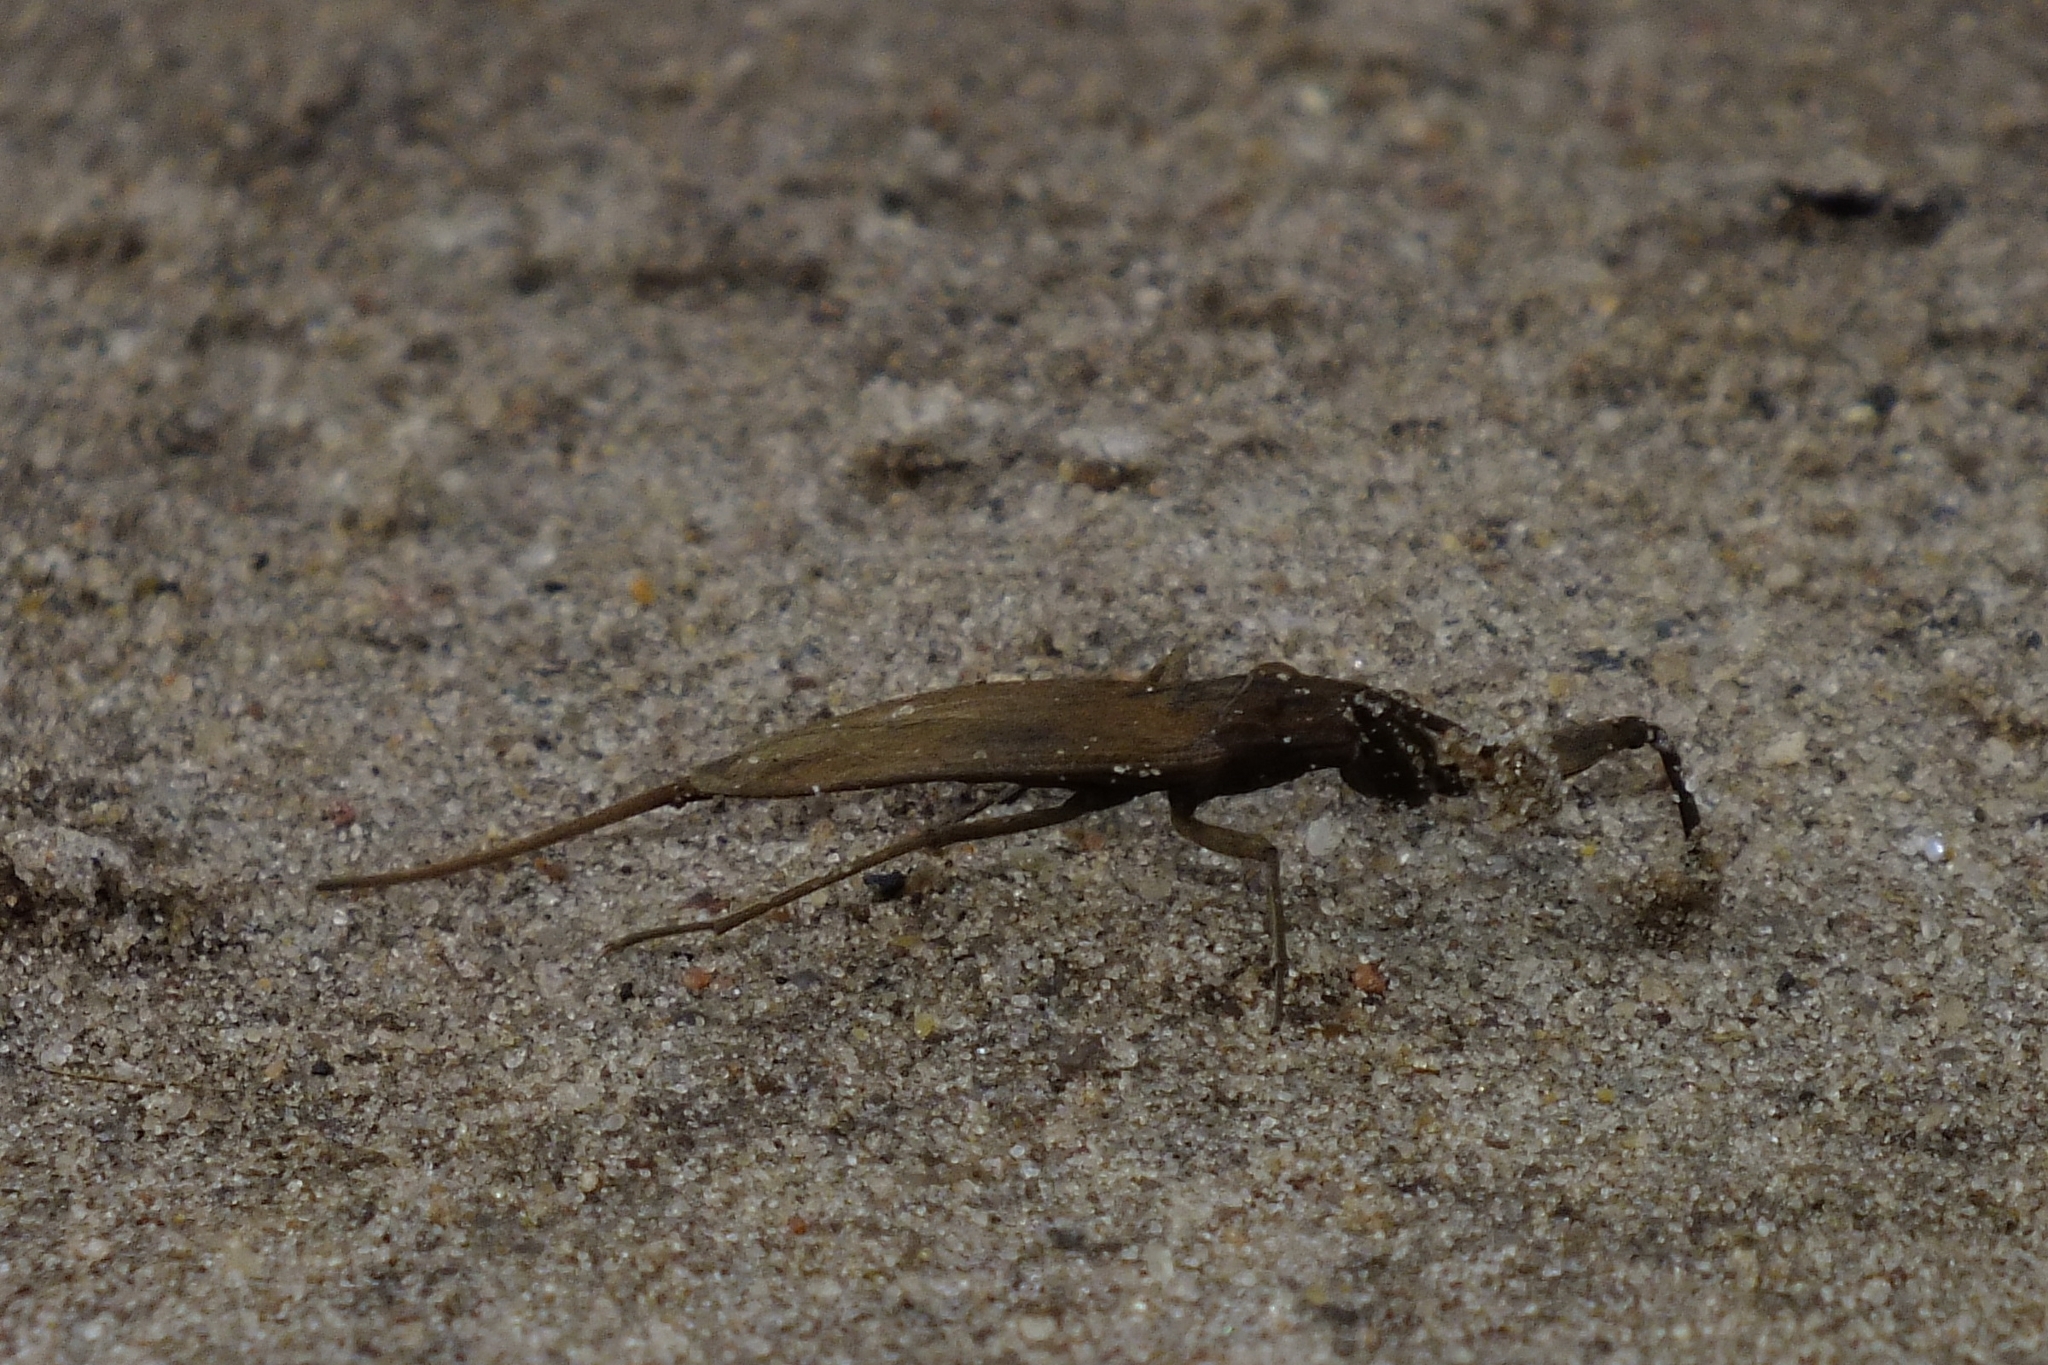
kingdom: Animalia
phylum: Arthropoda
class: Insecta
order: Hemiptera
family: Nepidae
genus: Nepa
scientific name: Nepa cinerea
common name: Water scorpion
